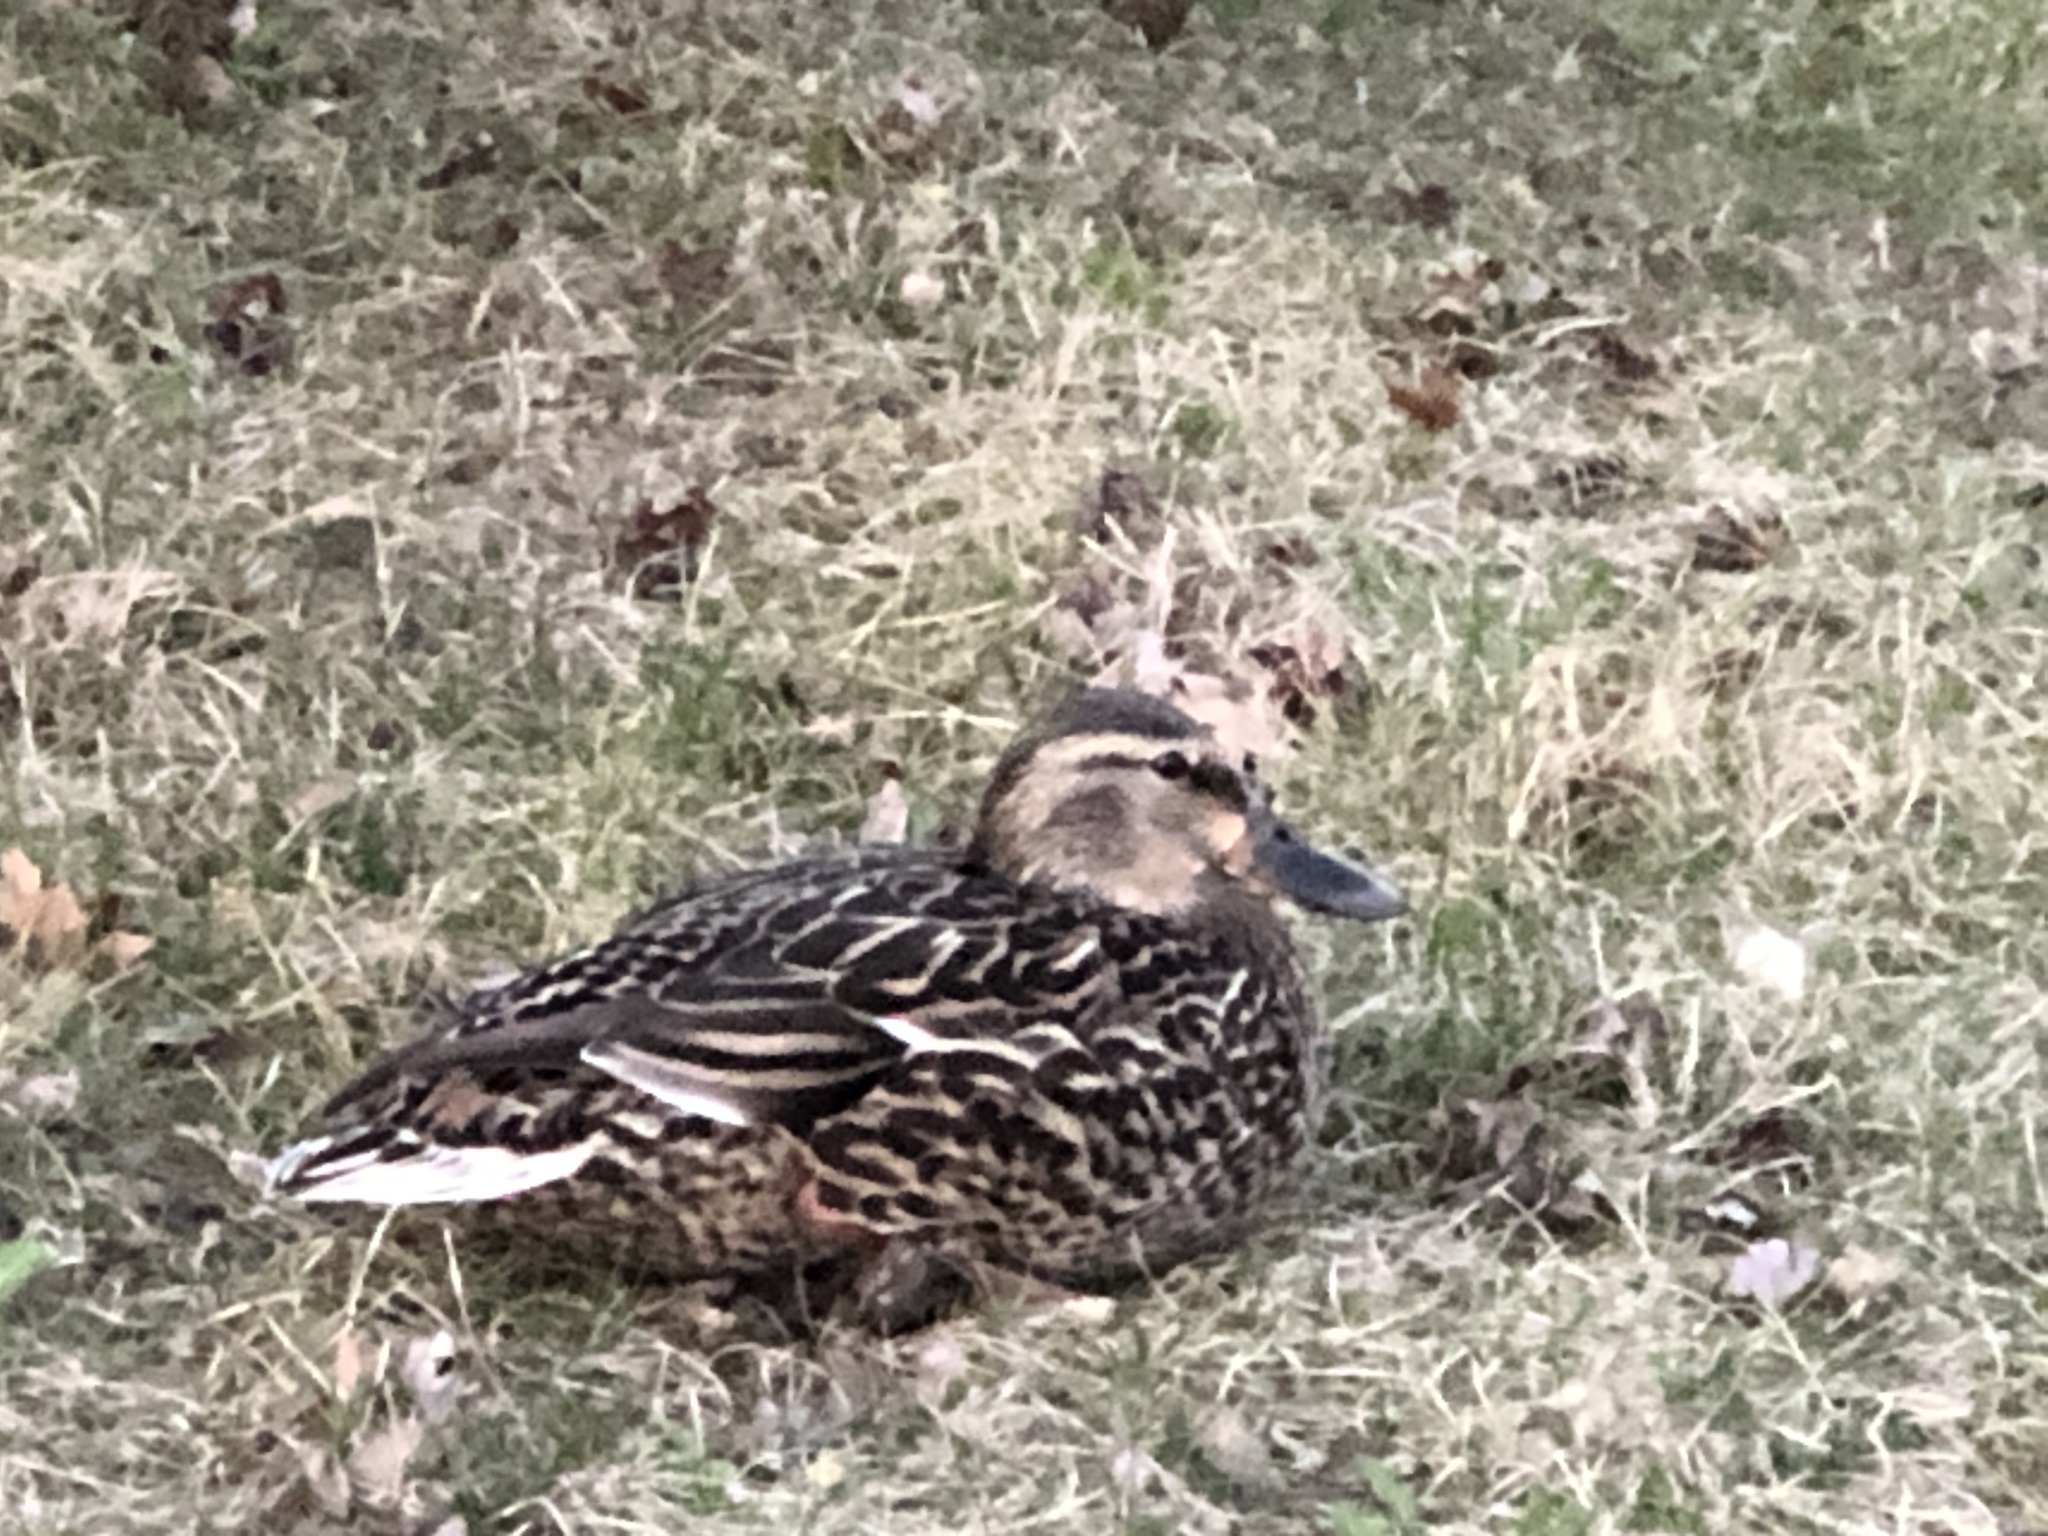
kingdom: Animalia
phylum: Chordata
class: Aves
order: Anseriformes
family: Anatidae
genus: Anas
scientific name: Anas platyrhynchos
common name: Mallard
